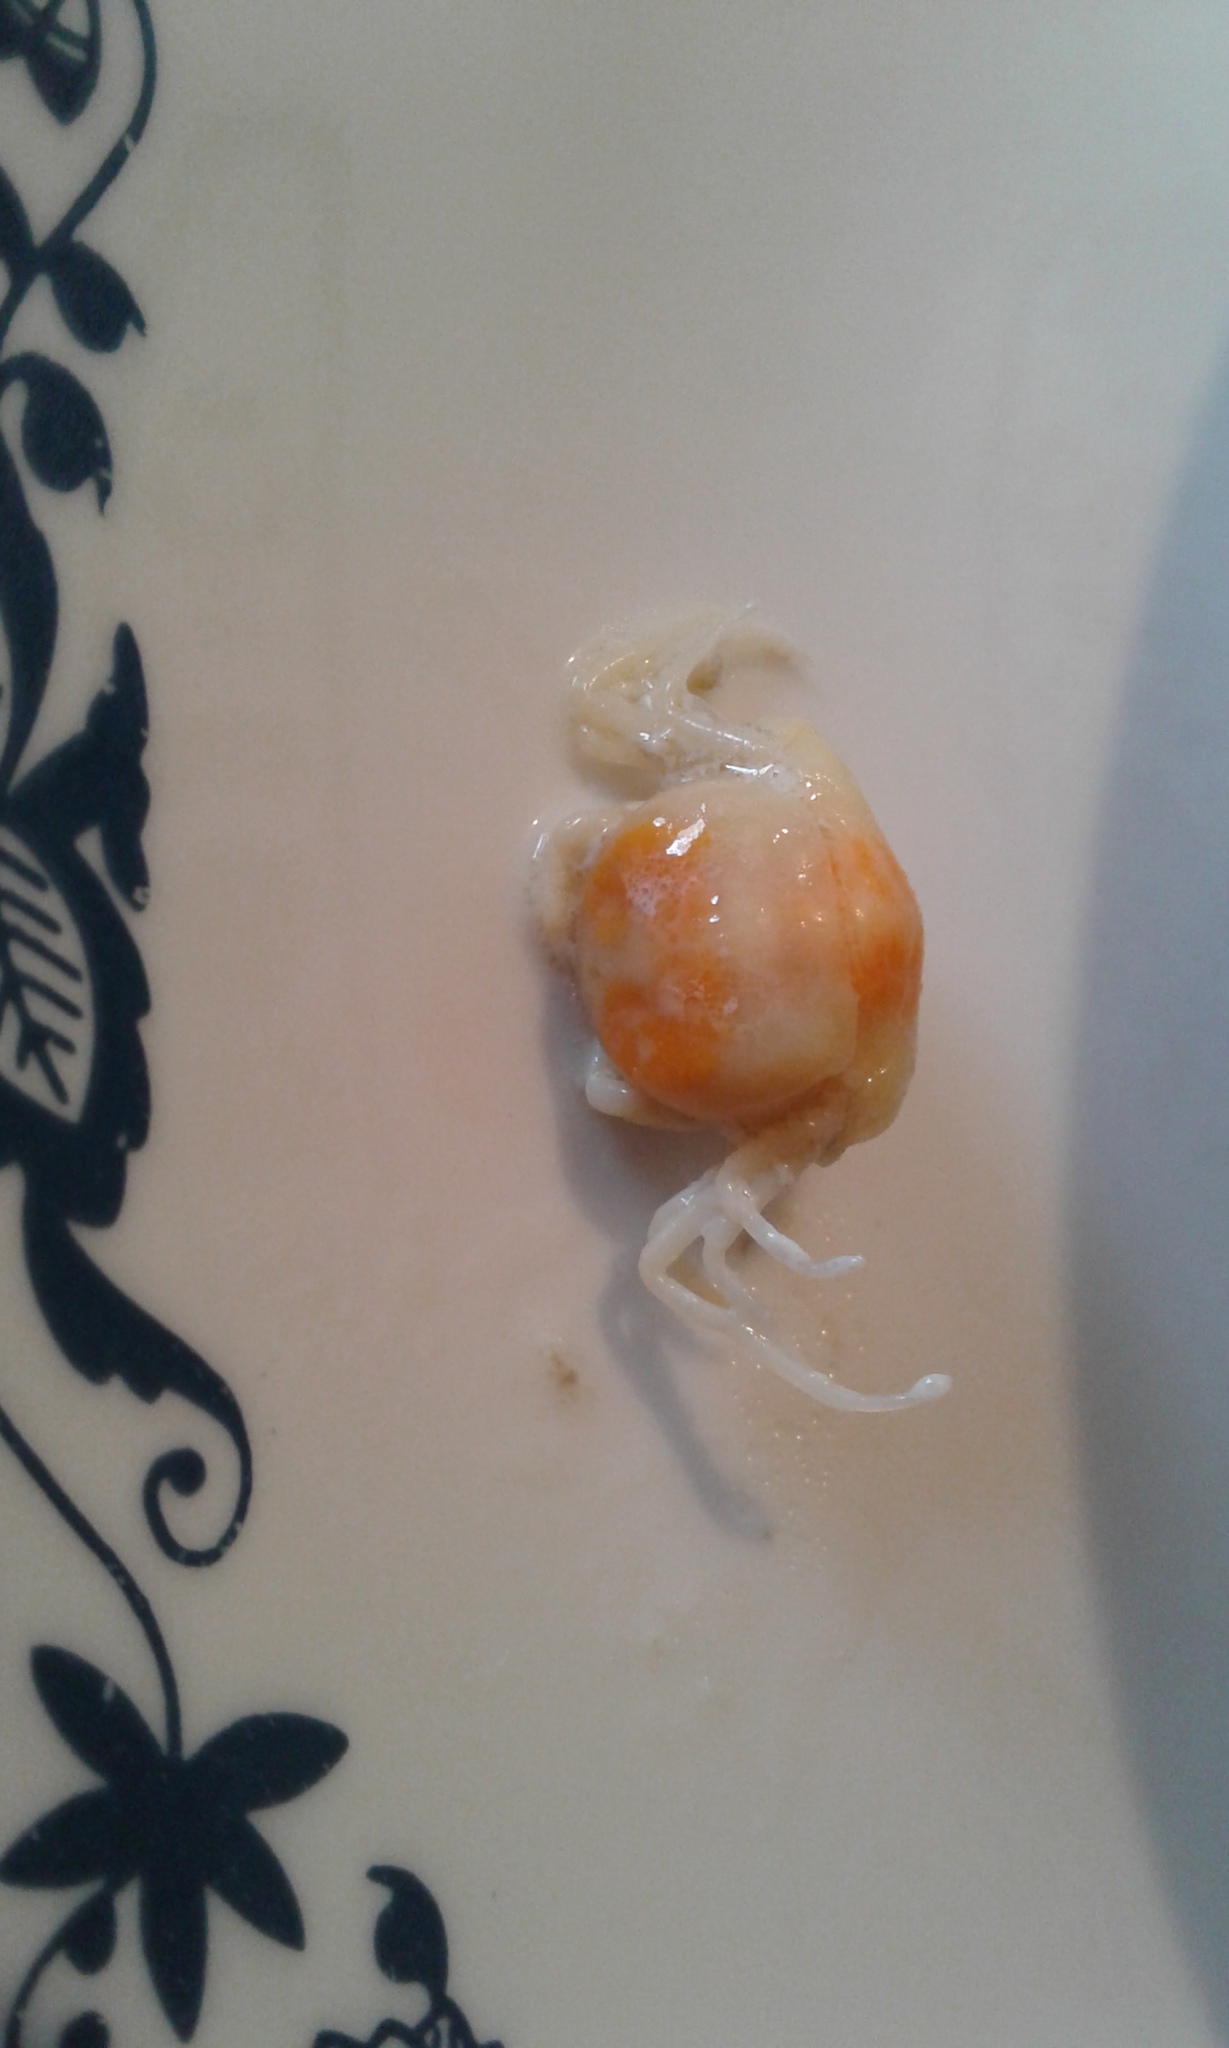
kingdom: Animalia
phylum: Arthropoda
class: Malacostraca
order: Decapoda
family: Pinnotheridae
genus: Zaops
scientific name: Zaops ostreum
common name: Oyster pea crab
